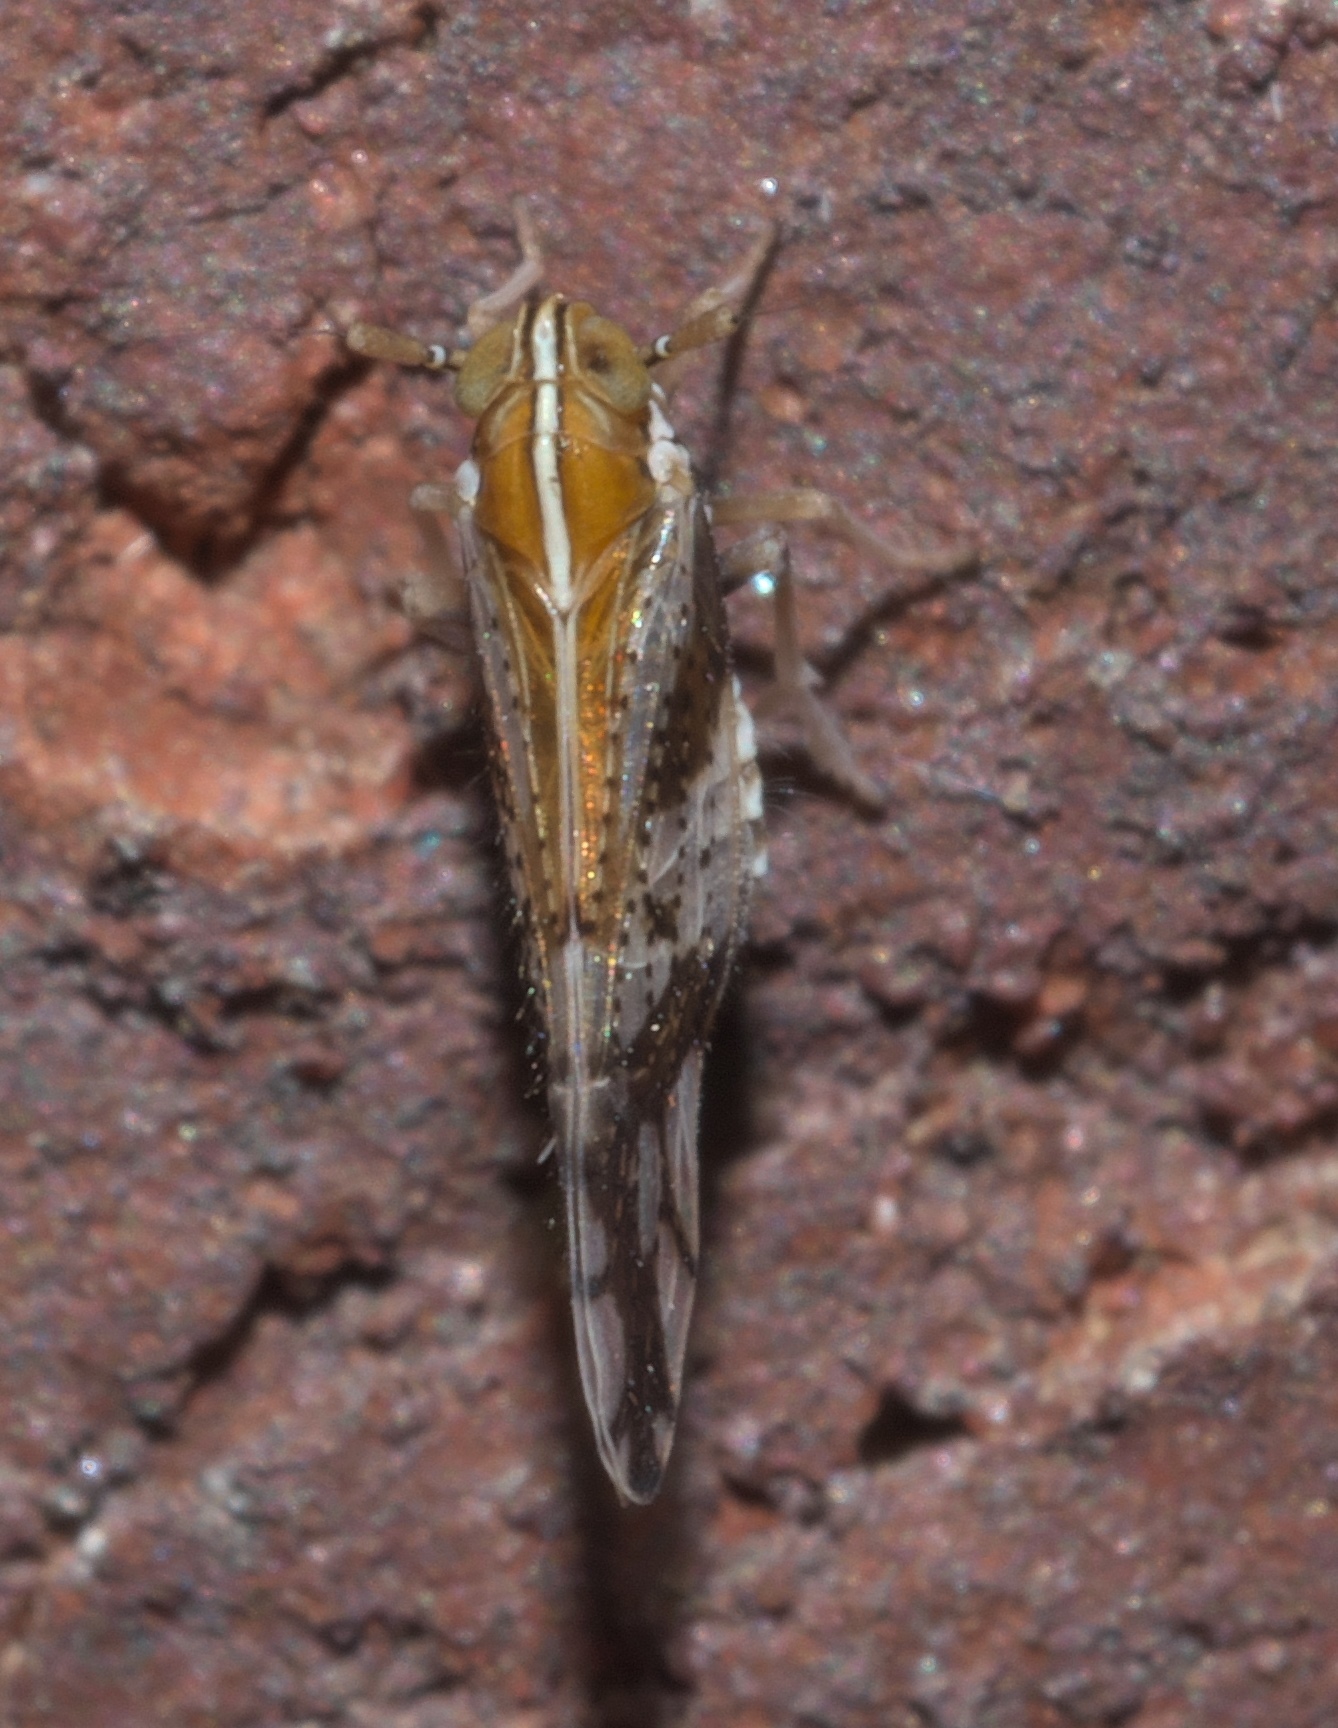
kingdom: Animalia
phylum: Arthropoda
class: Insecta
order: Hemiptera
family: Delphacidae
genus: Liburniella
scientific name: Liburniella ornata
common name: Ornate planthopper
